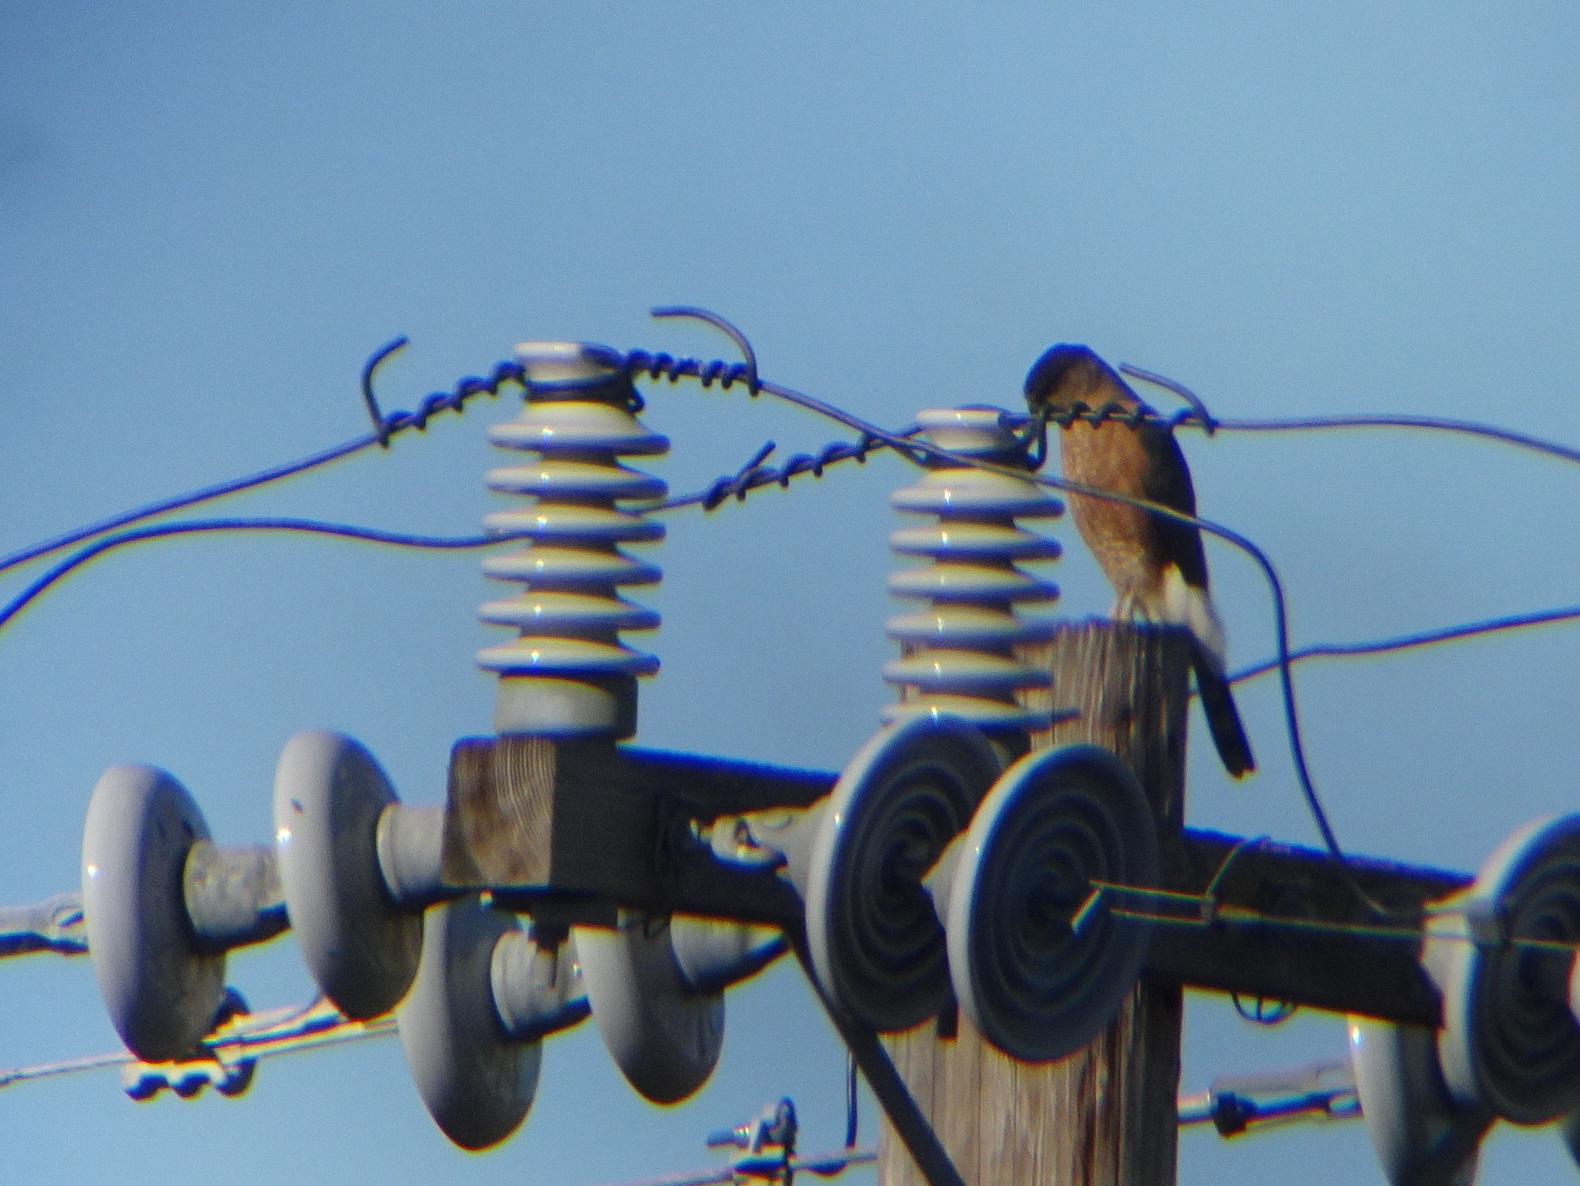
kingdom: Animalia
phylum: Chordata
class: Aves
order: Accipitriformes
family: Accipitridae
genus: Accipiter
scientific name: Accipiter cooperii
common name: Cooper's hawk
